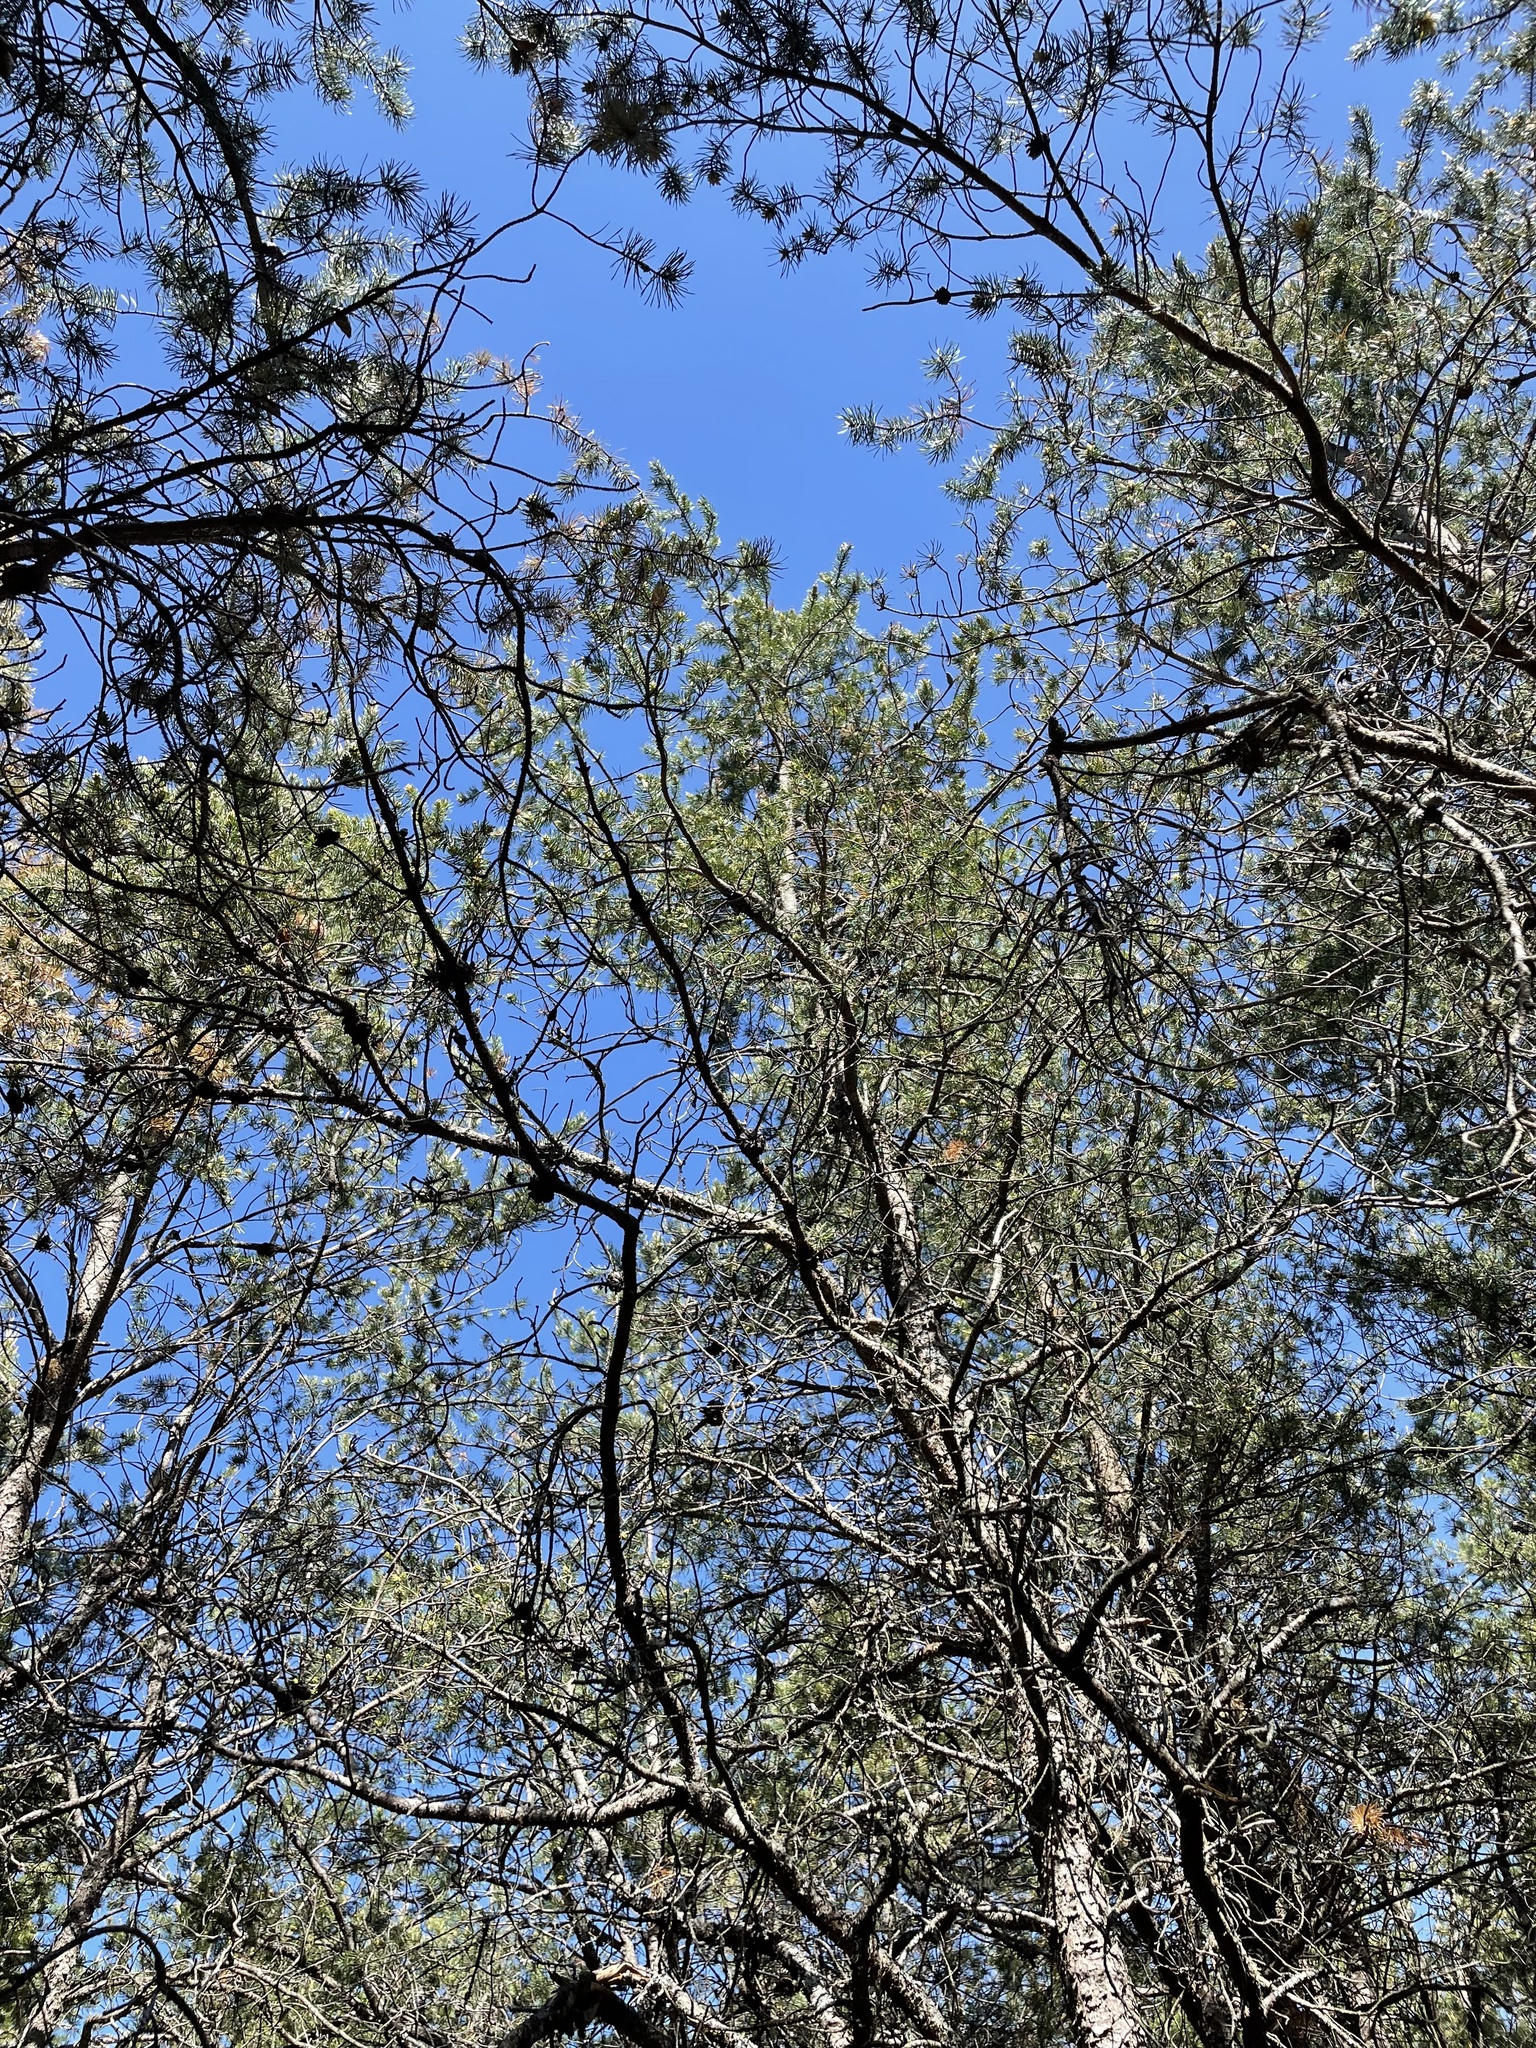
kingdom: Plantae
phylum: Tracheophyta
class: Pinopsida
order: Pinales
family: Pinaceae
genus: Pinus
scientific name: Pinus banksiana
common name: Jack pine
